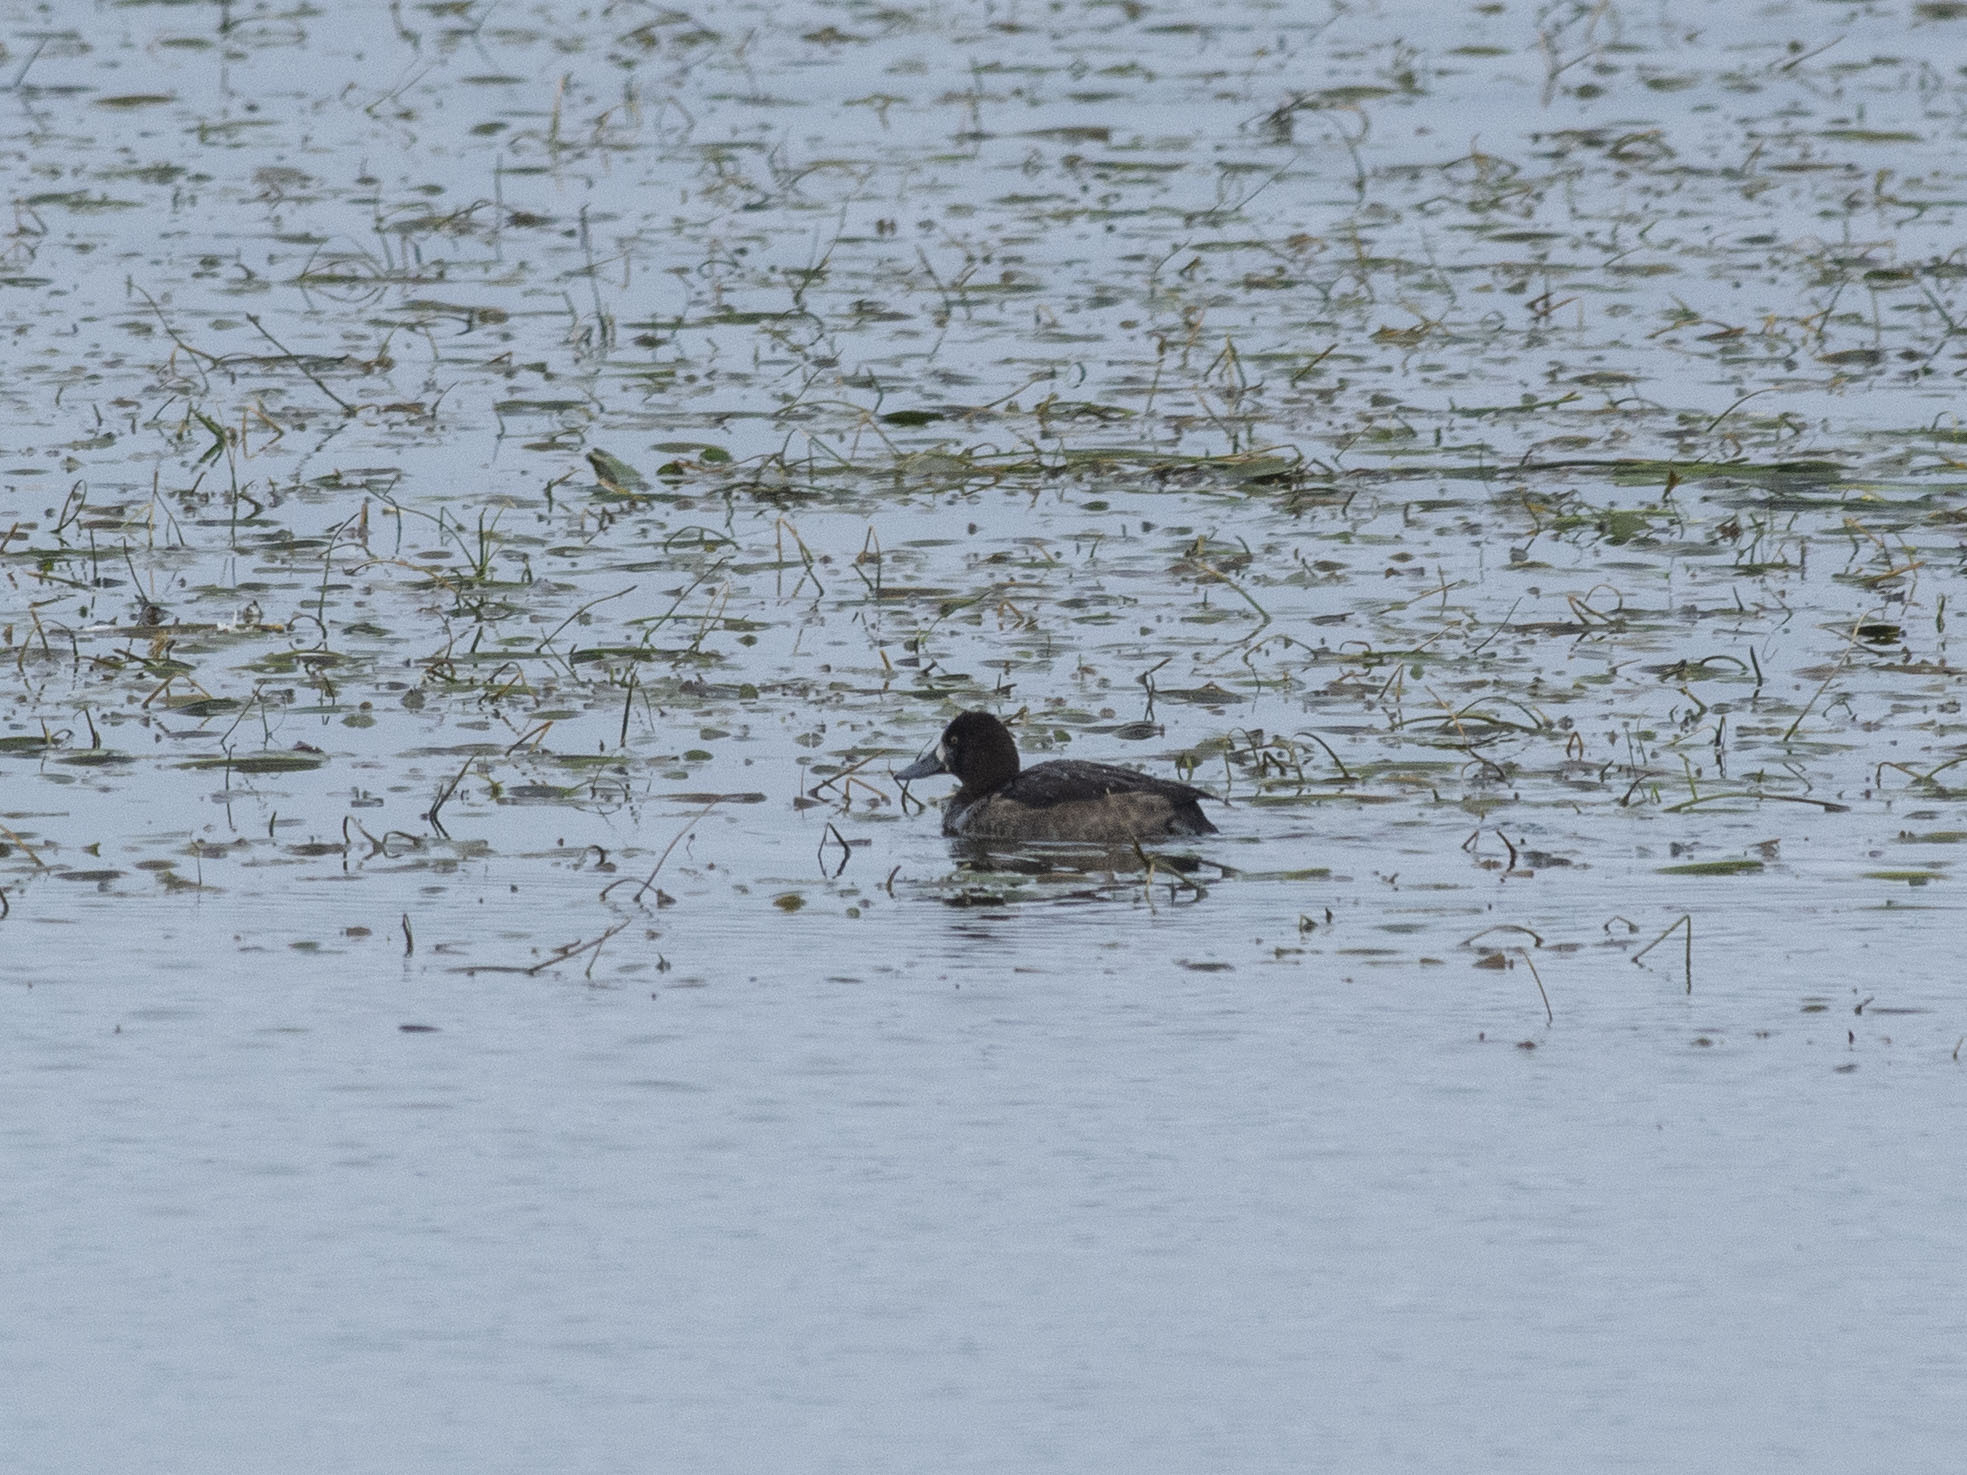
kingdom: Animalia
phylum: Chordata
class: Aves
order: Anseriformes
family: Anatidae
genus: Aythya
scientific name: Aythya fuligula
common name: Tufted duck
